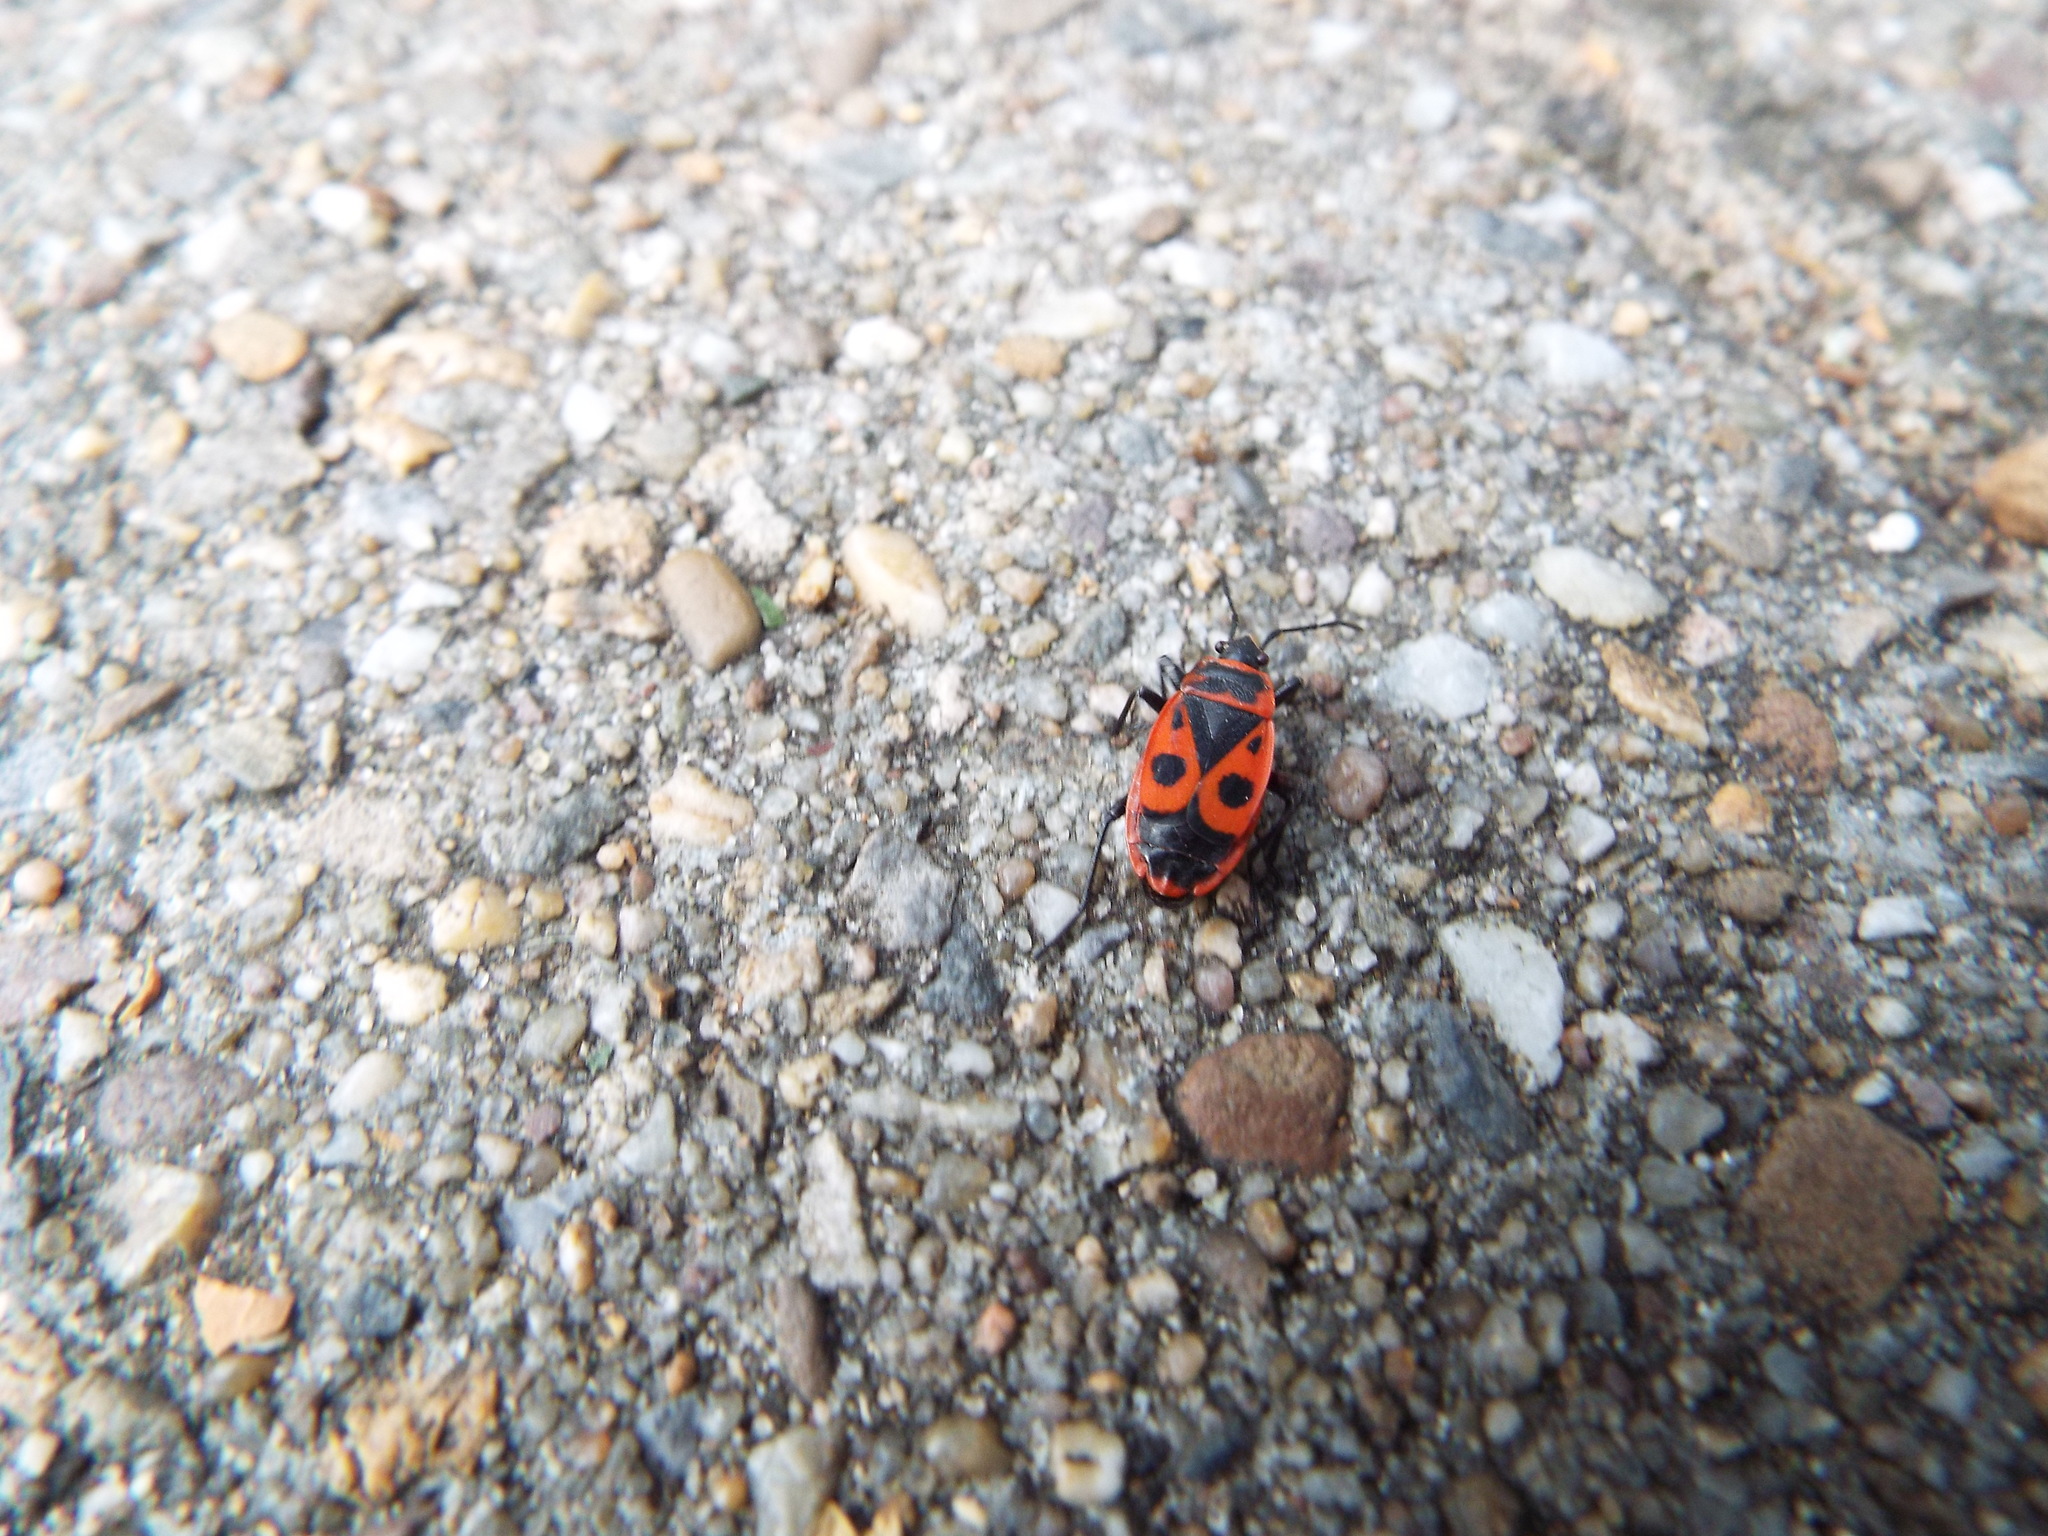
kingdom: Animalia
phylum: Arthropoda
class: Insecta
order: Hemiptera
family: Pyrrhocoridae
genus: Pyrrhocoris
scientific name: Pyrrhocoris apterus
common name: Firebug
